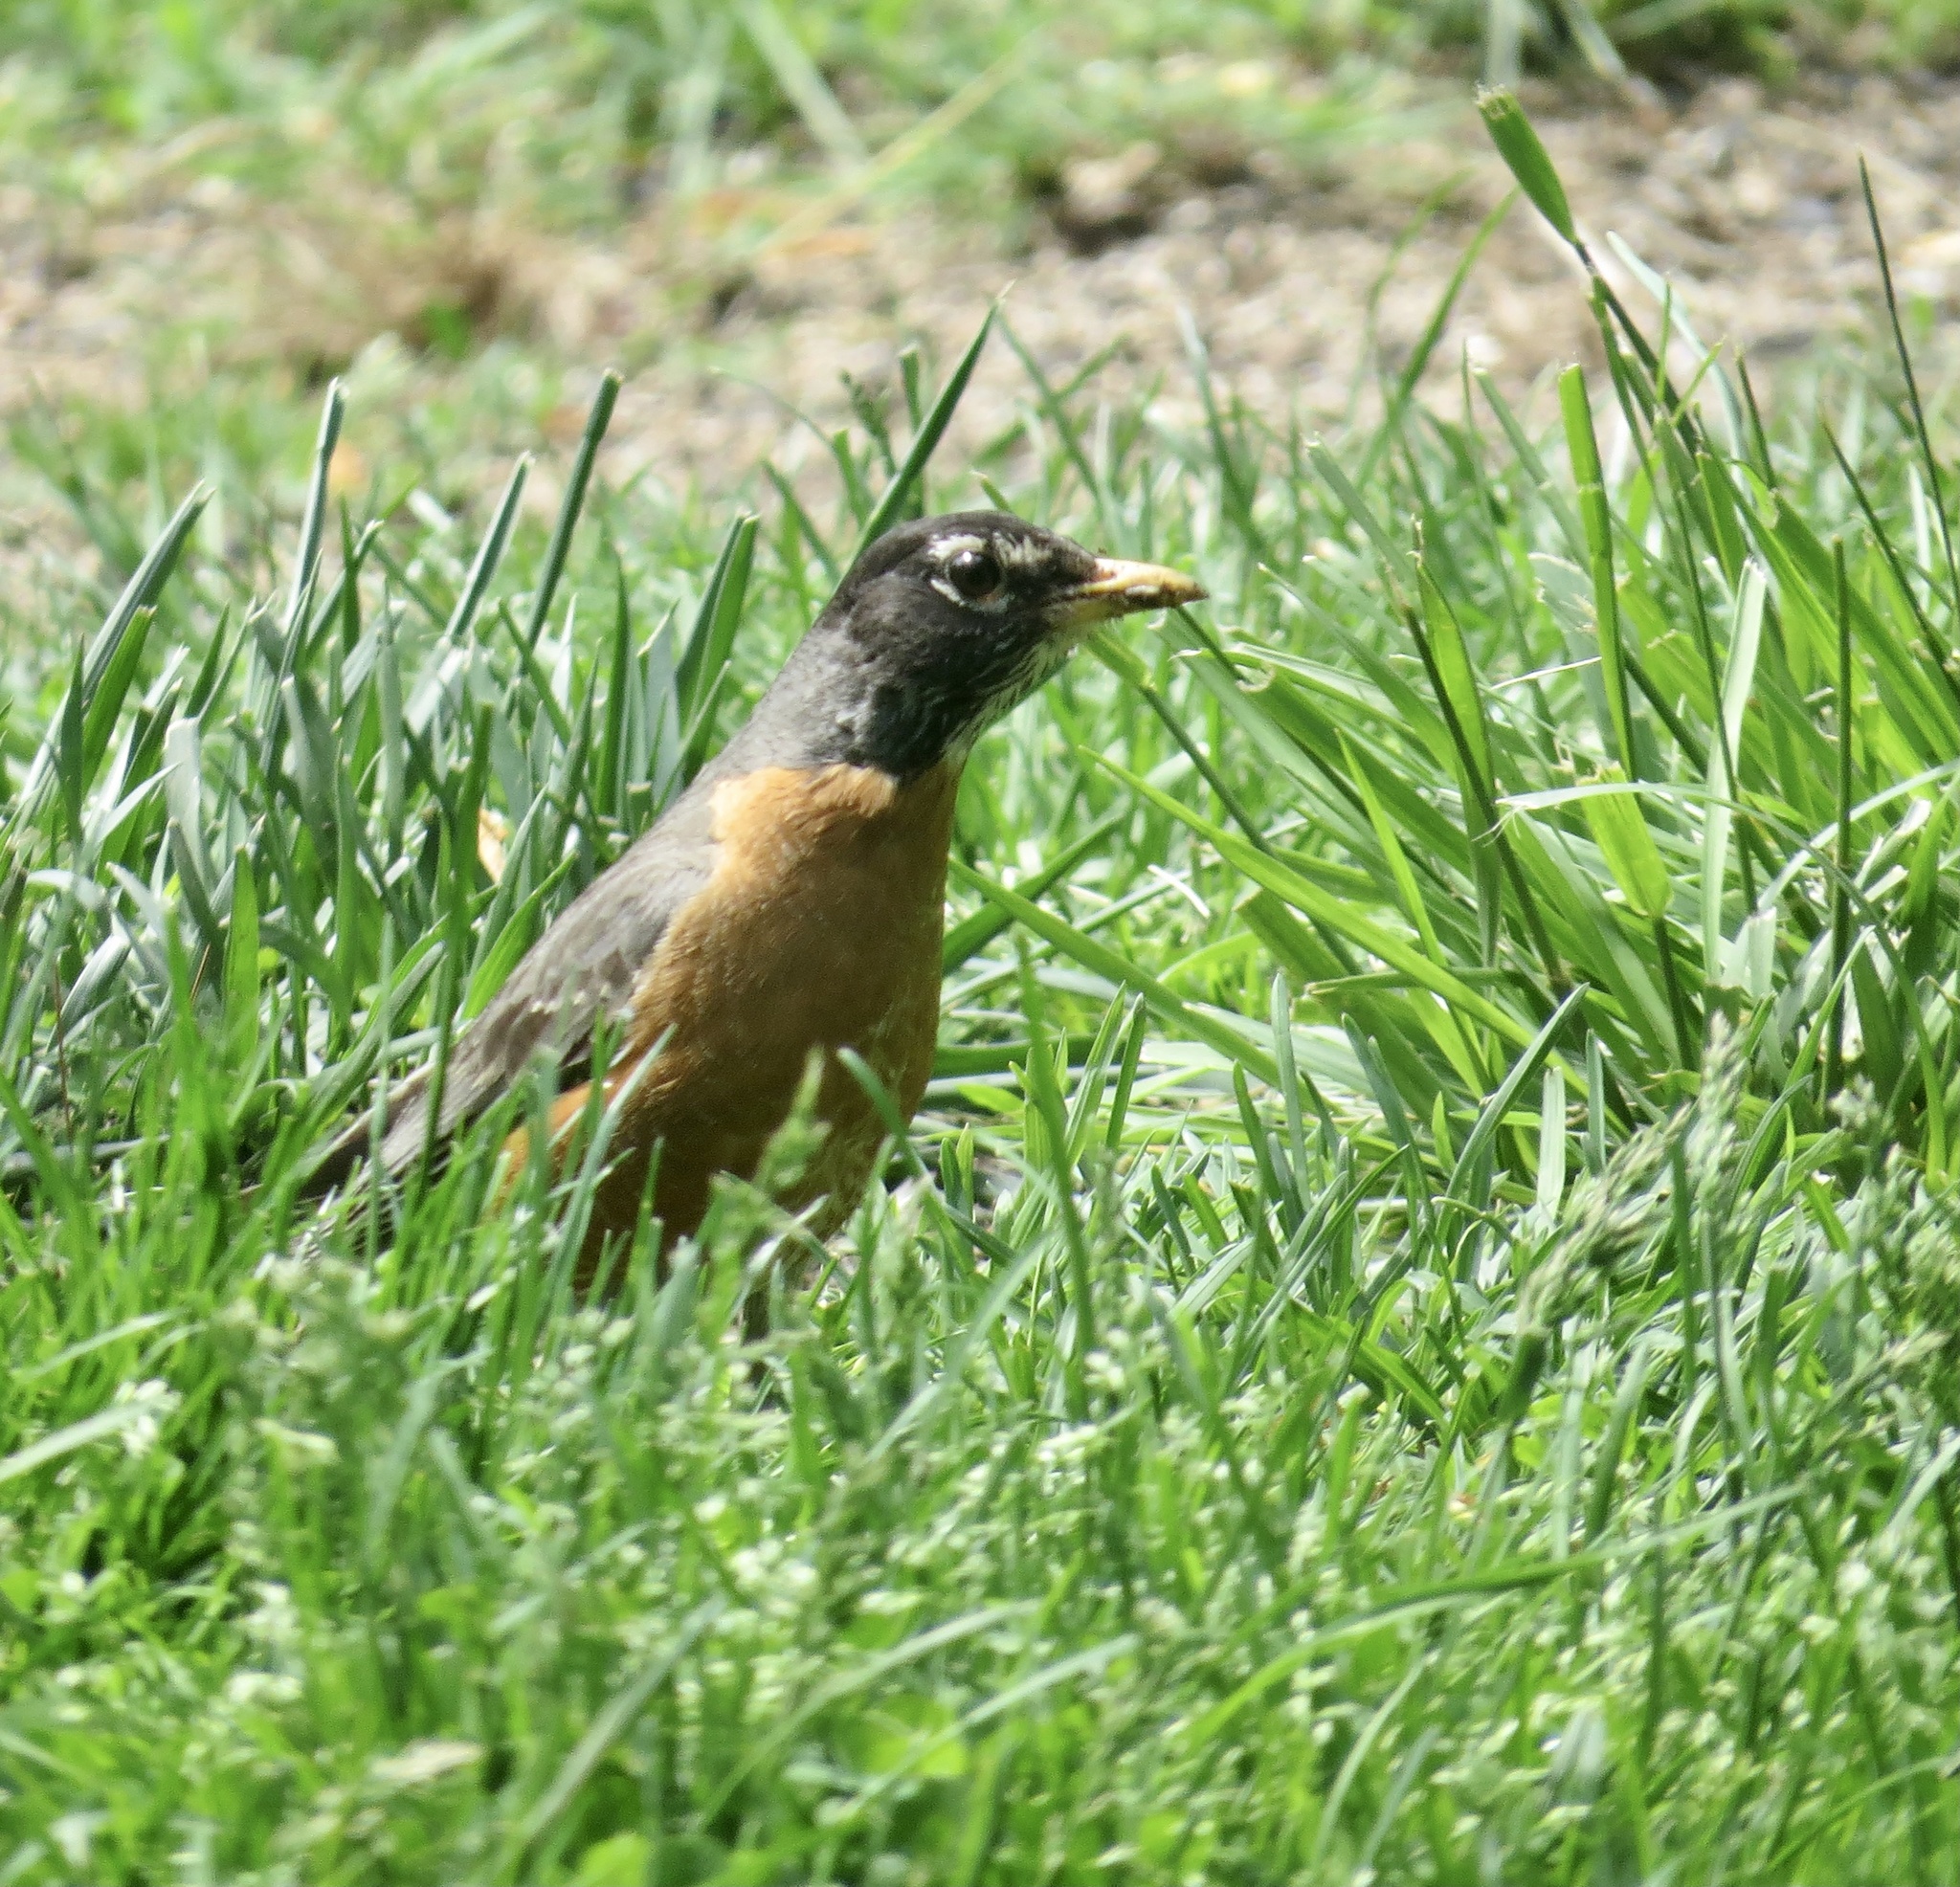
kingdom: Animalia
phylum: Chordata
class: Aves
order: Passeriformes
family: Turdidae
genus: Turdus
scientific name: Turdus migratorius
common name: American robin
